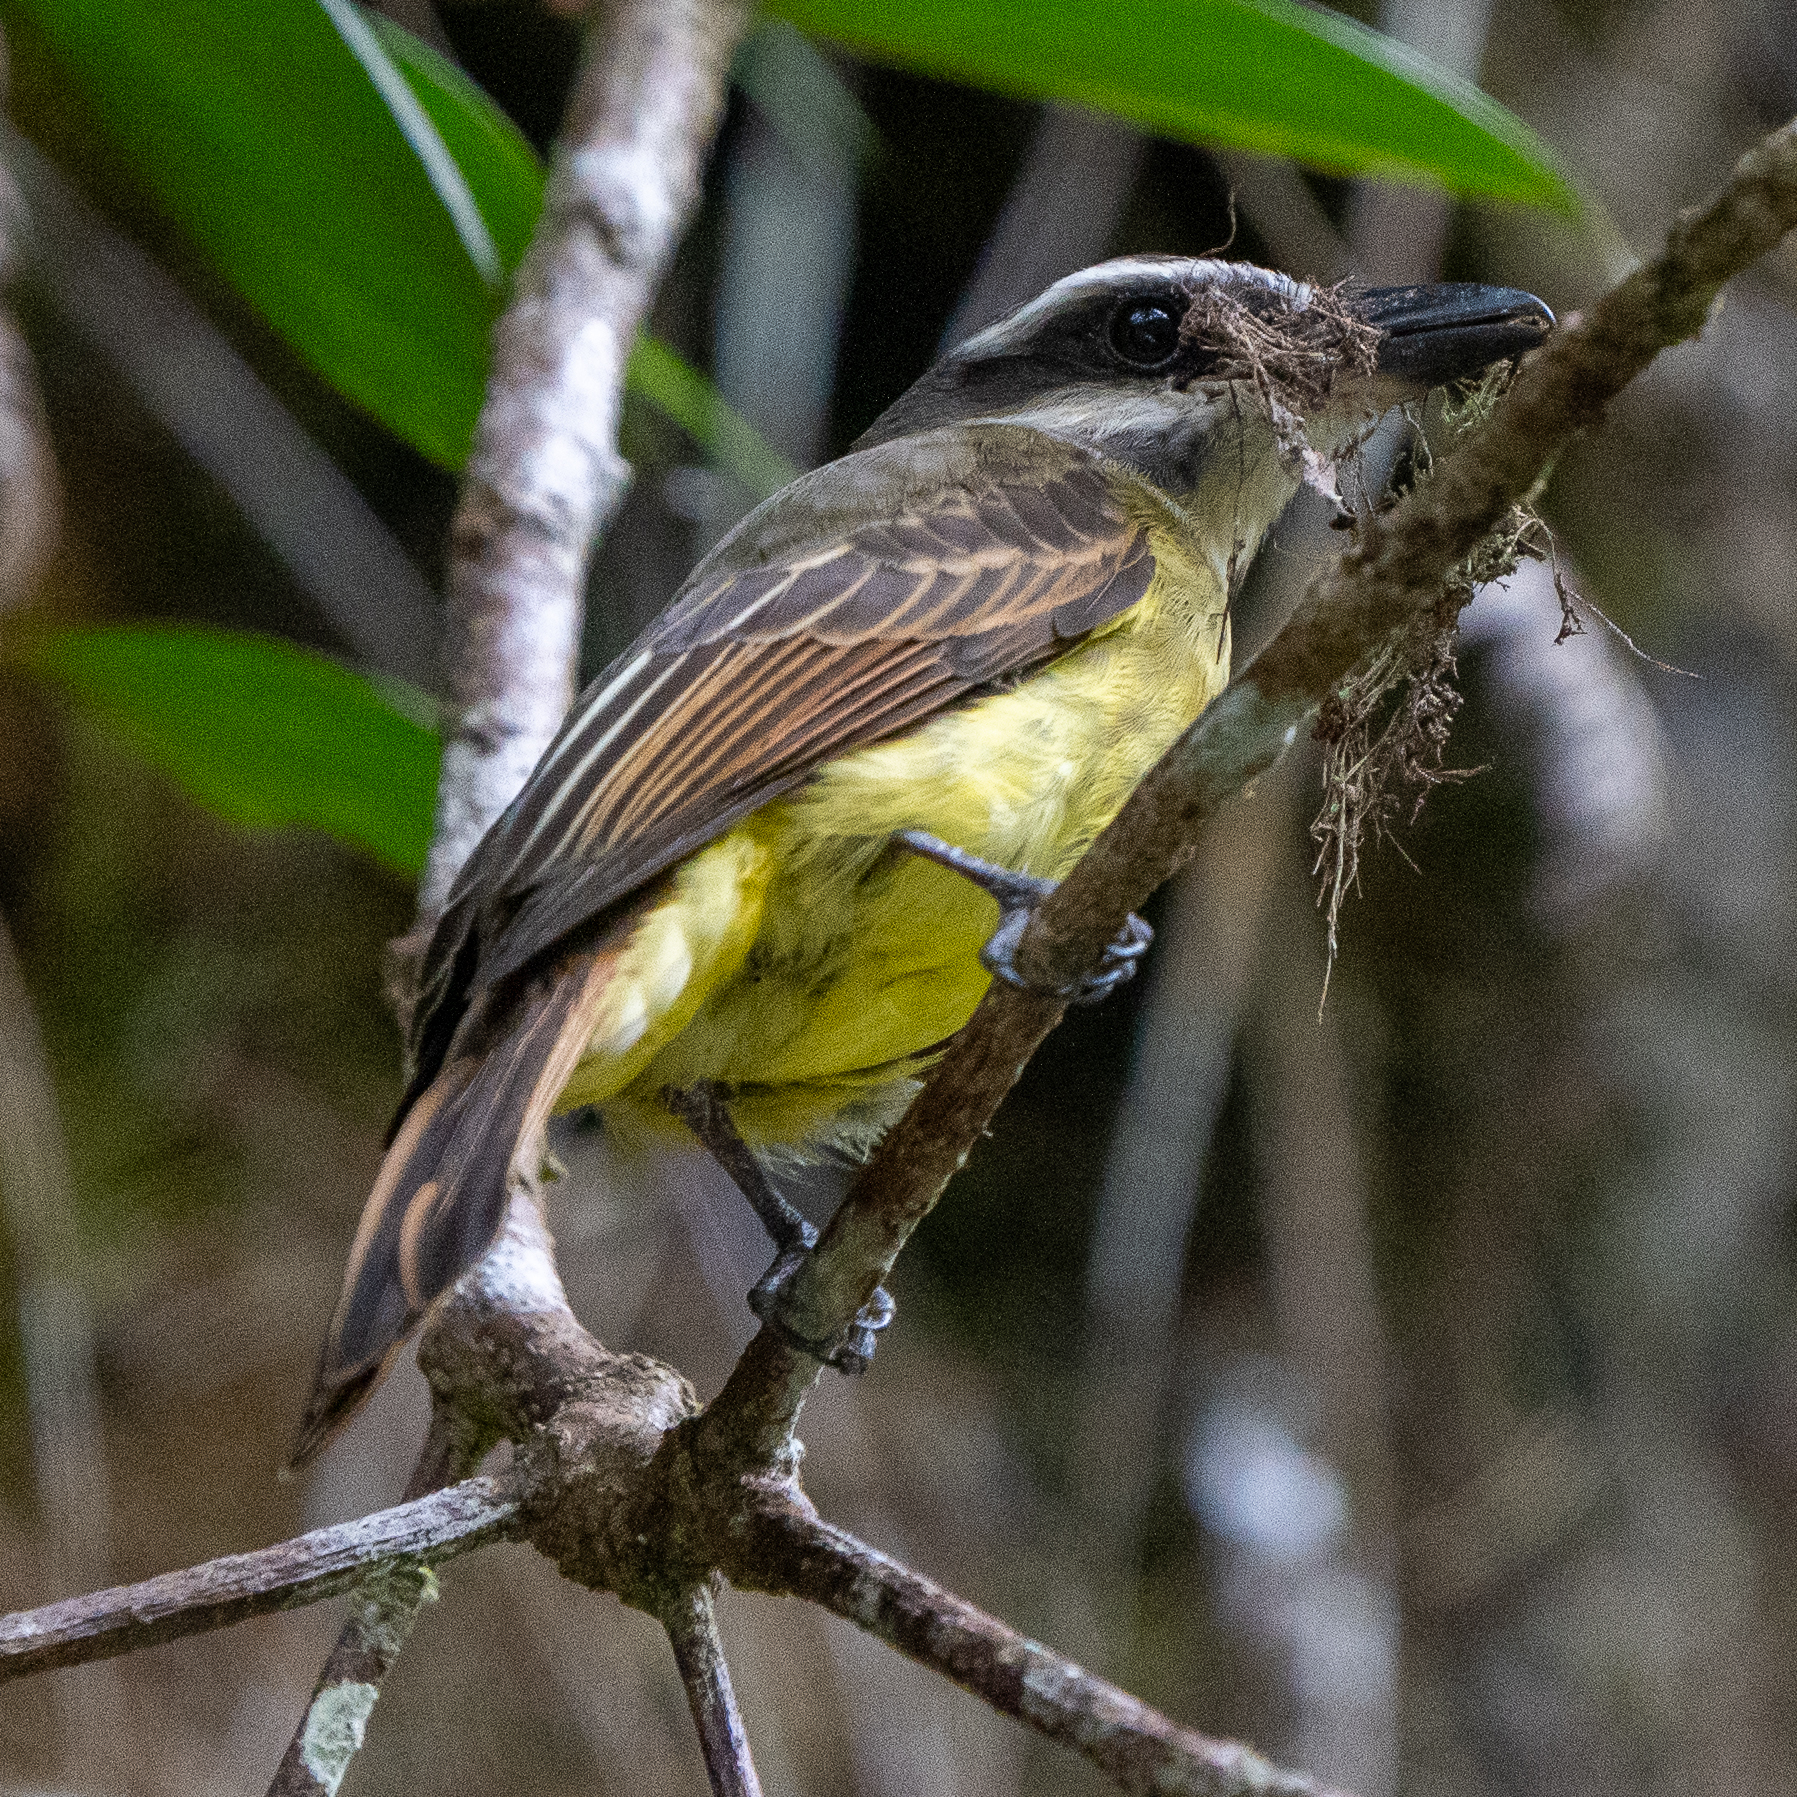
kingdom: Animalia
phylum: Chordata
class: Aves
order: Passeriformes
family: Tyrannidae
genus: Myiodynastes
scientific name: Myiodynastes hemichrysus
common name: Golden-bellied flycatcher
